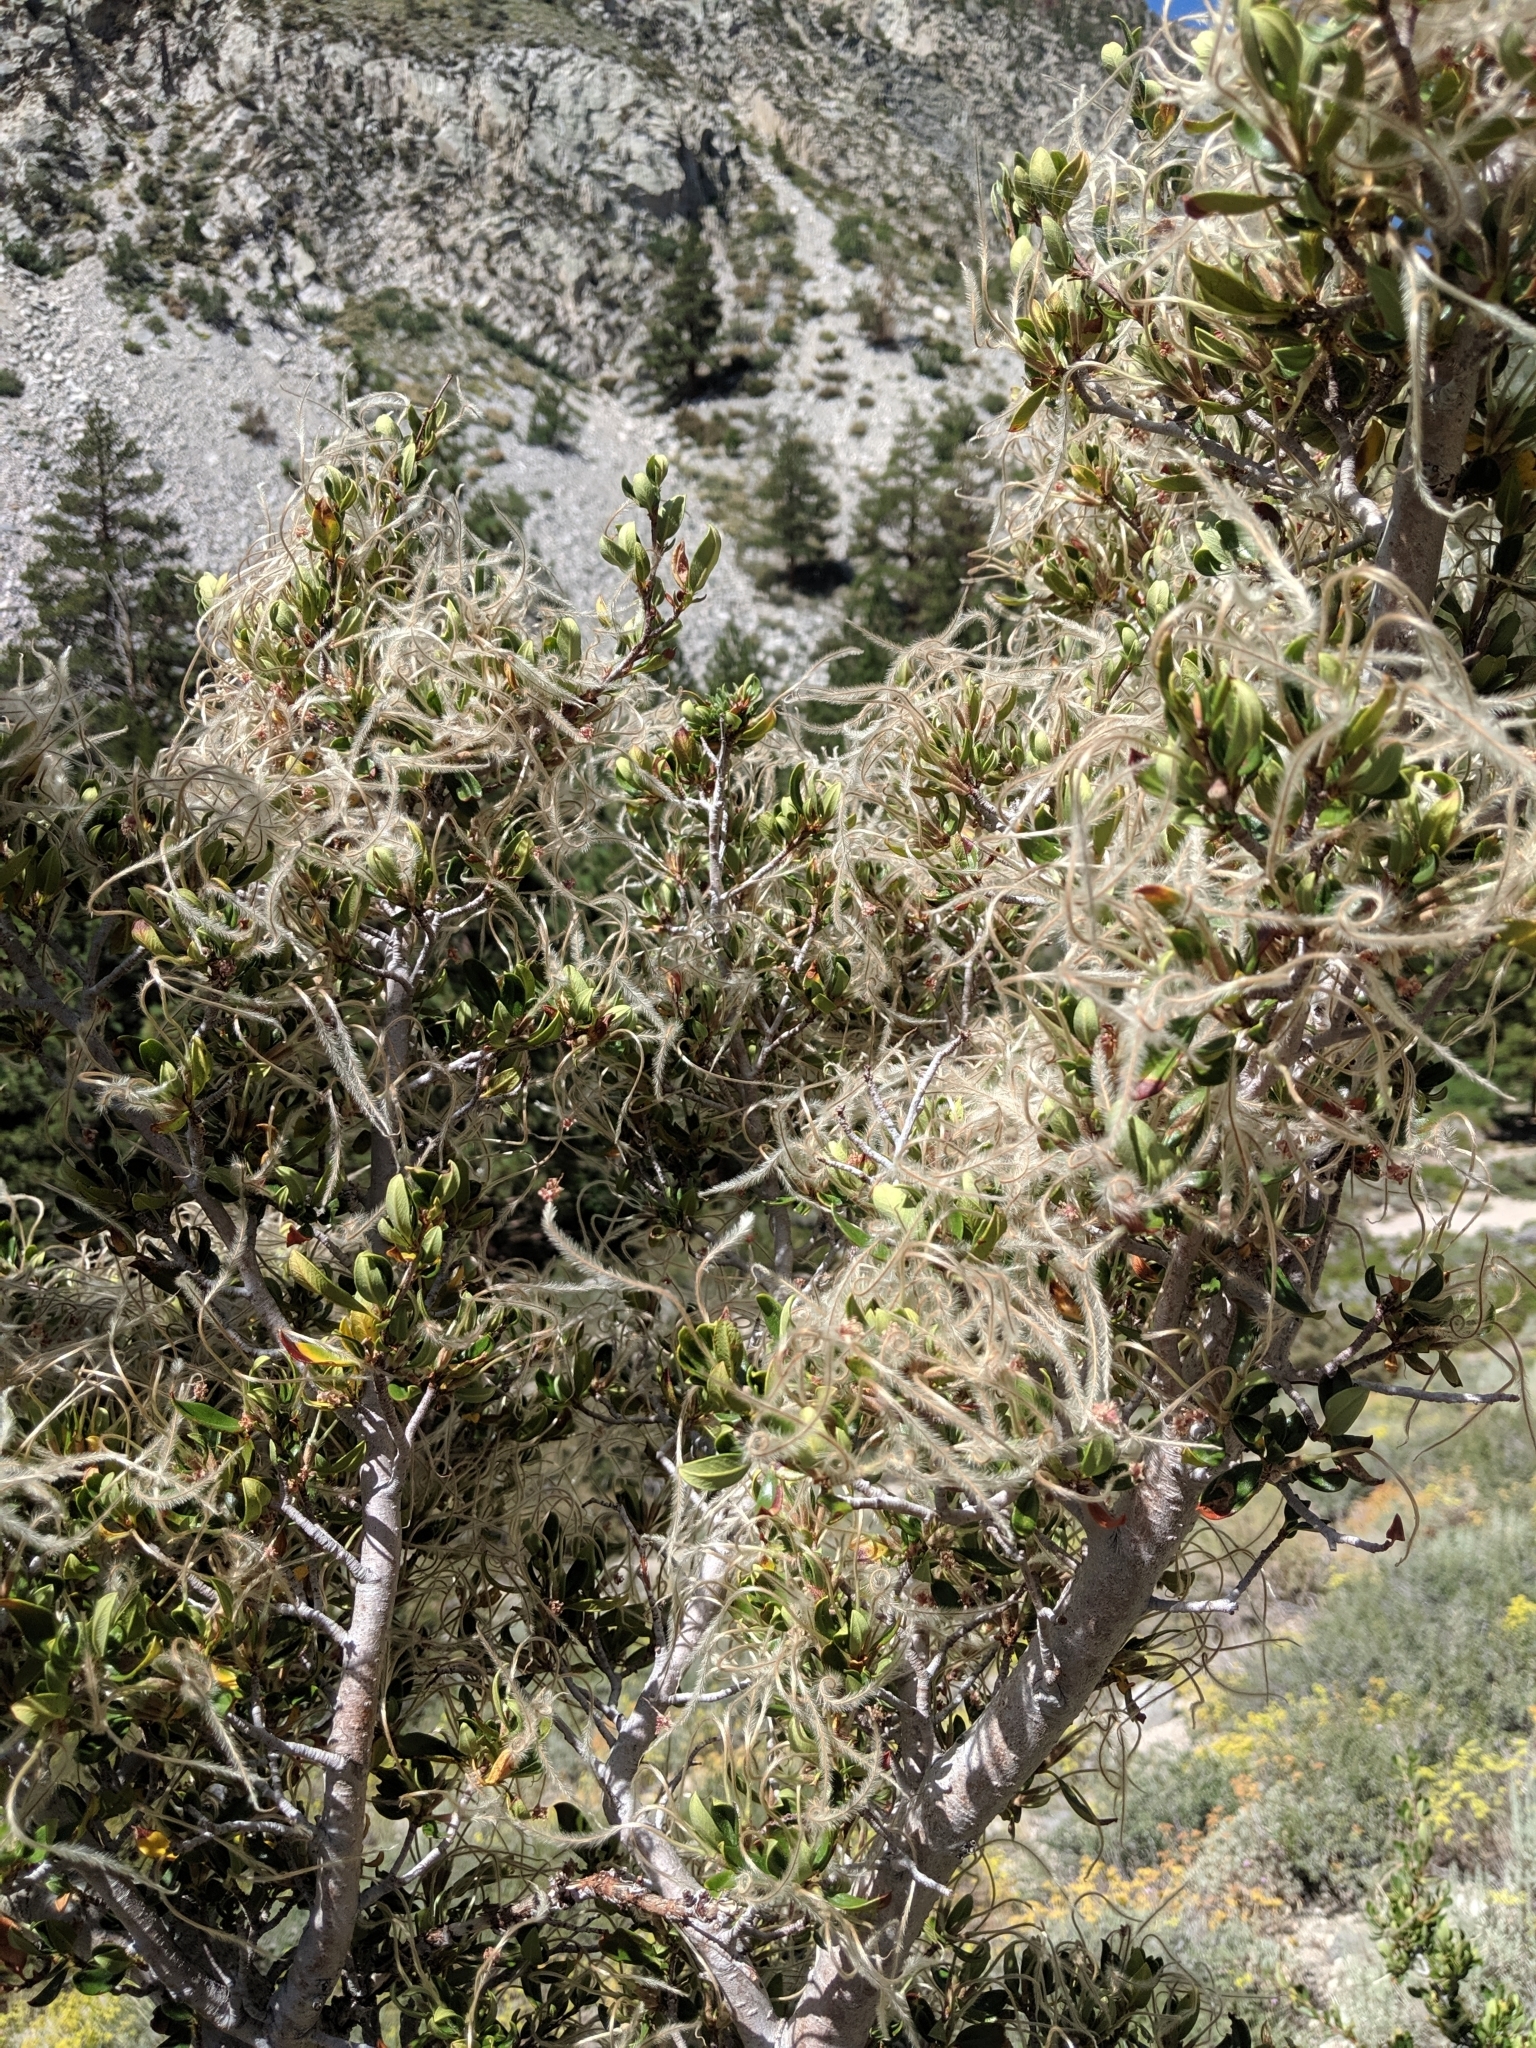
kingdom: Plantae
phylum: Tracheophyta
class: Magnoliopsida
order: Rosales
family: Rosaceae
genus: Cercocarpus
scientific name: Cercocarpus ledifolius
